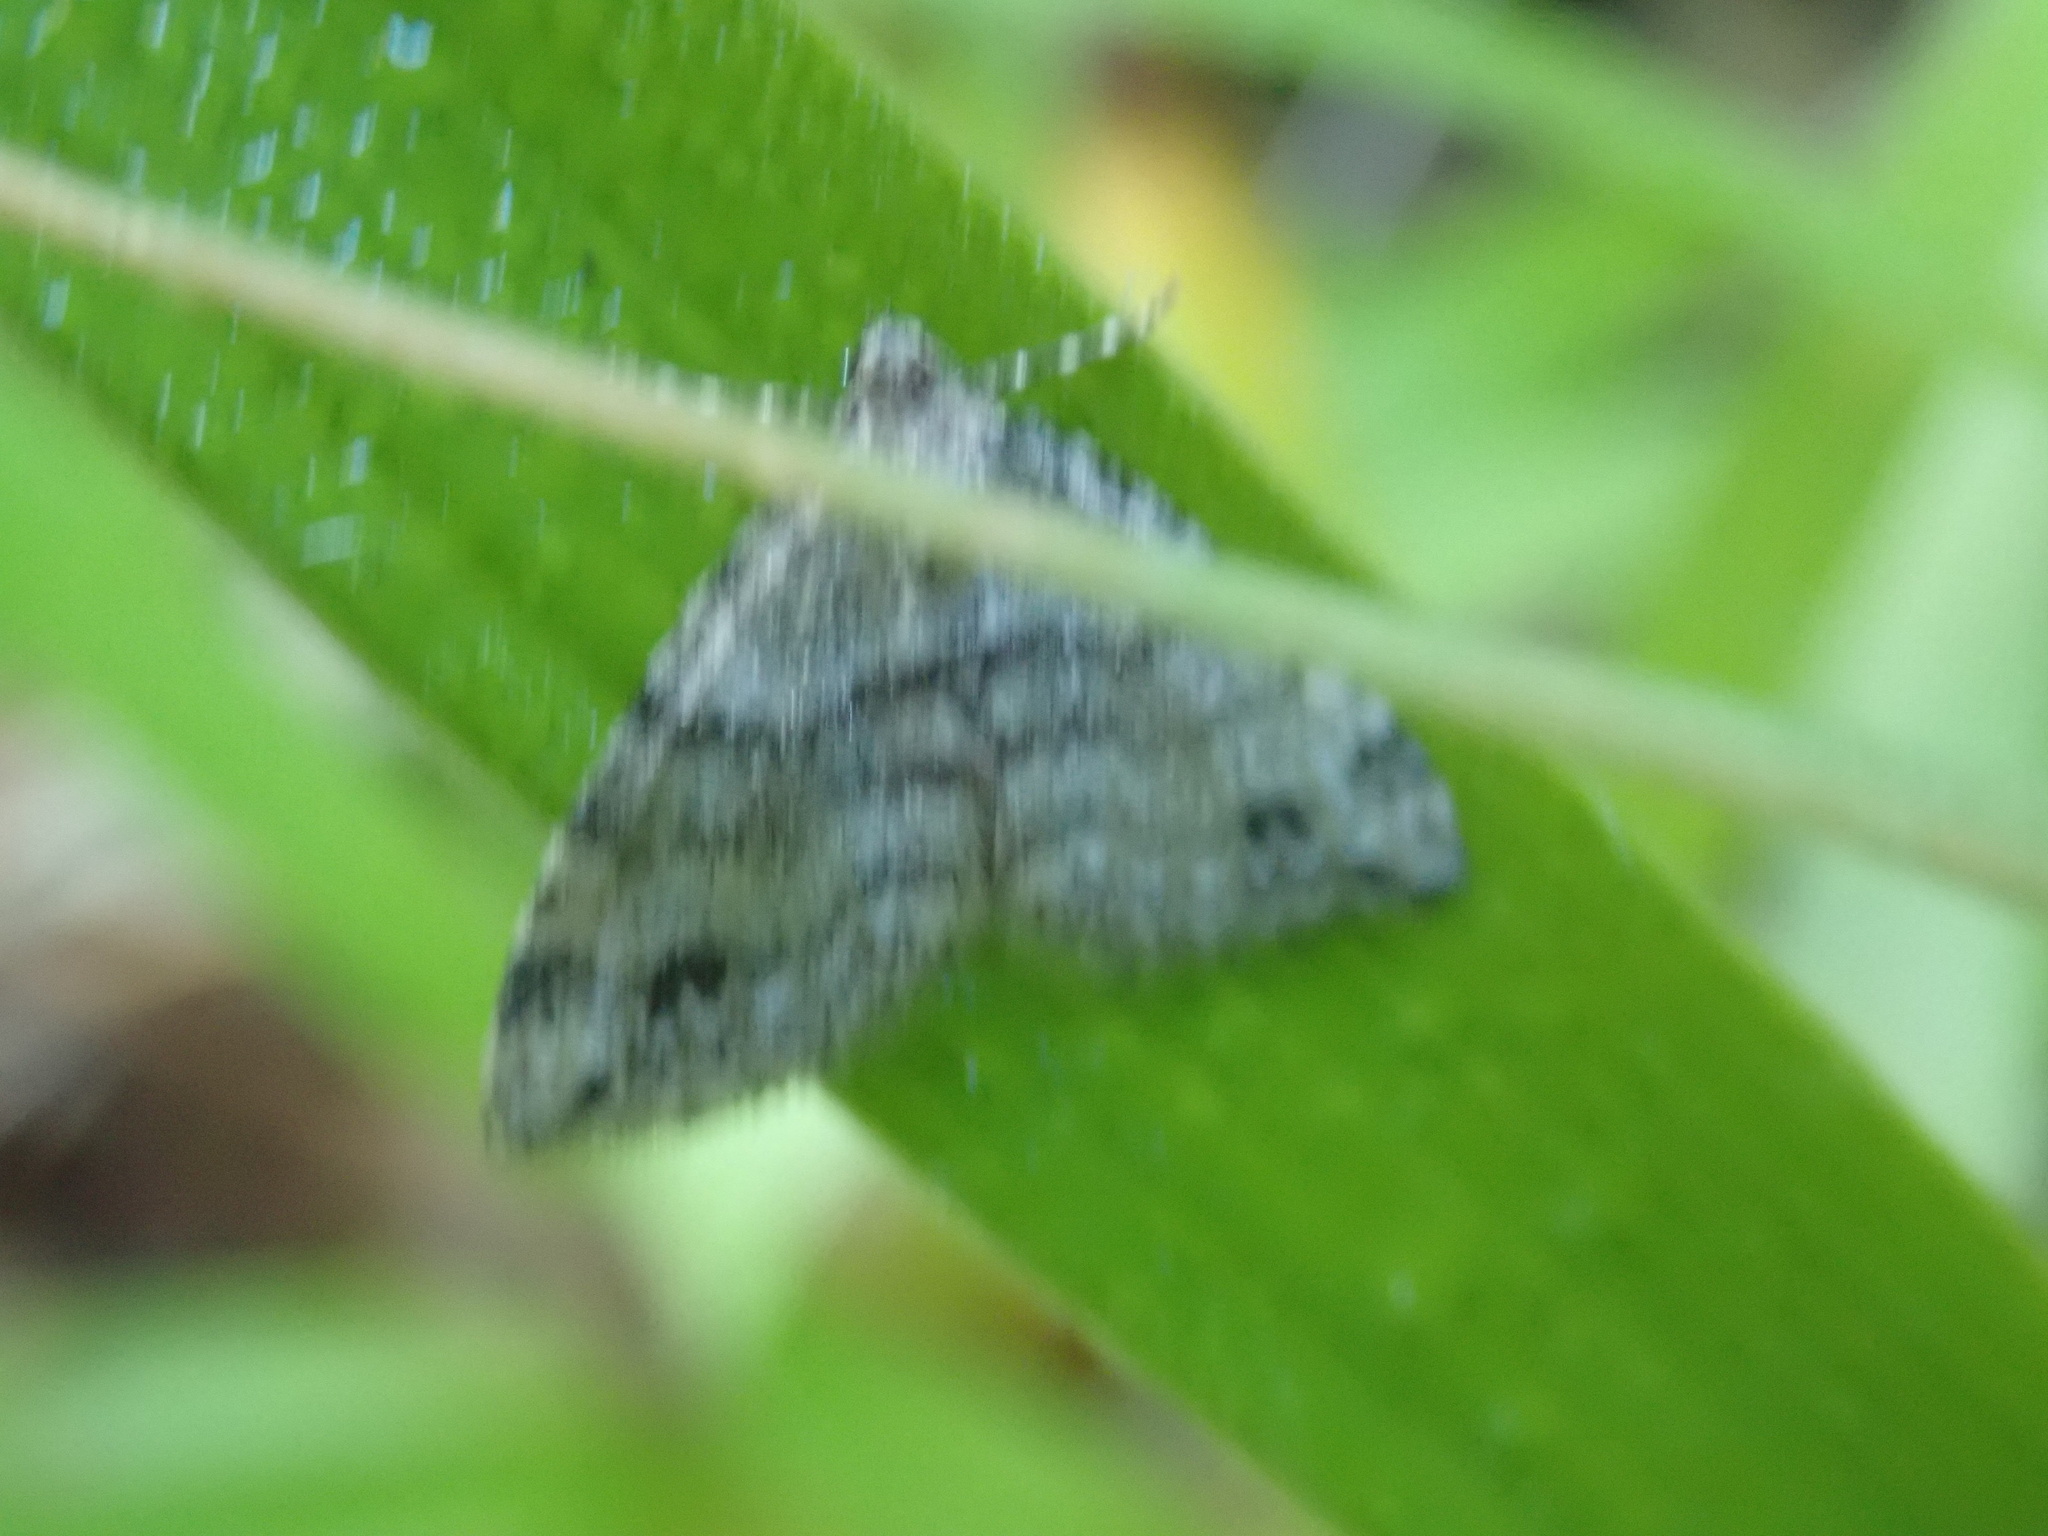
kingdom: Animalia
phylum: Arthropoda
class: Insecta
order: Lepidoptera
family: Geometridae
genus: Perizoma
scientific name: Perizoma didymata
